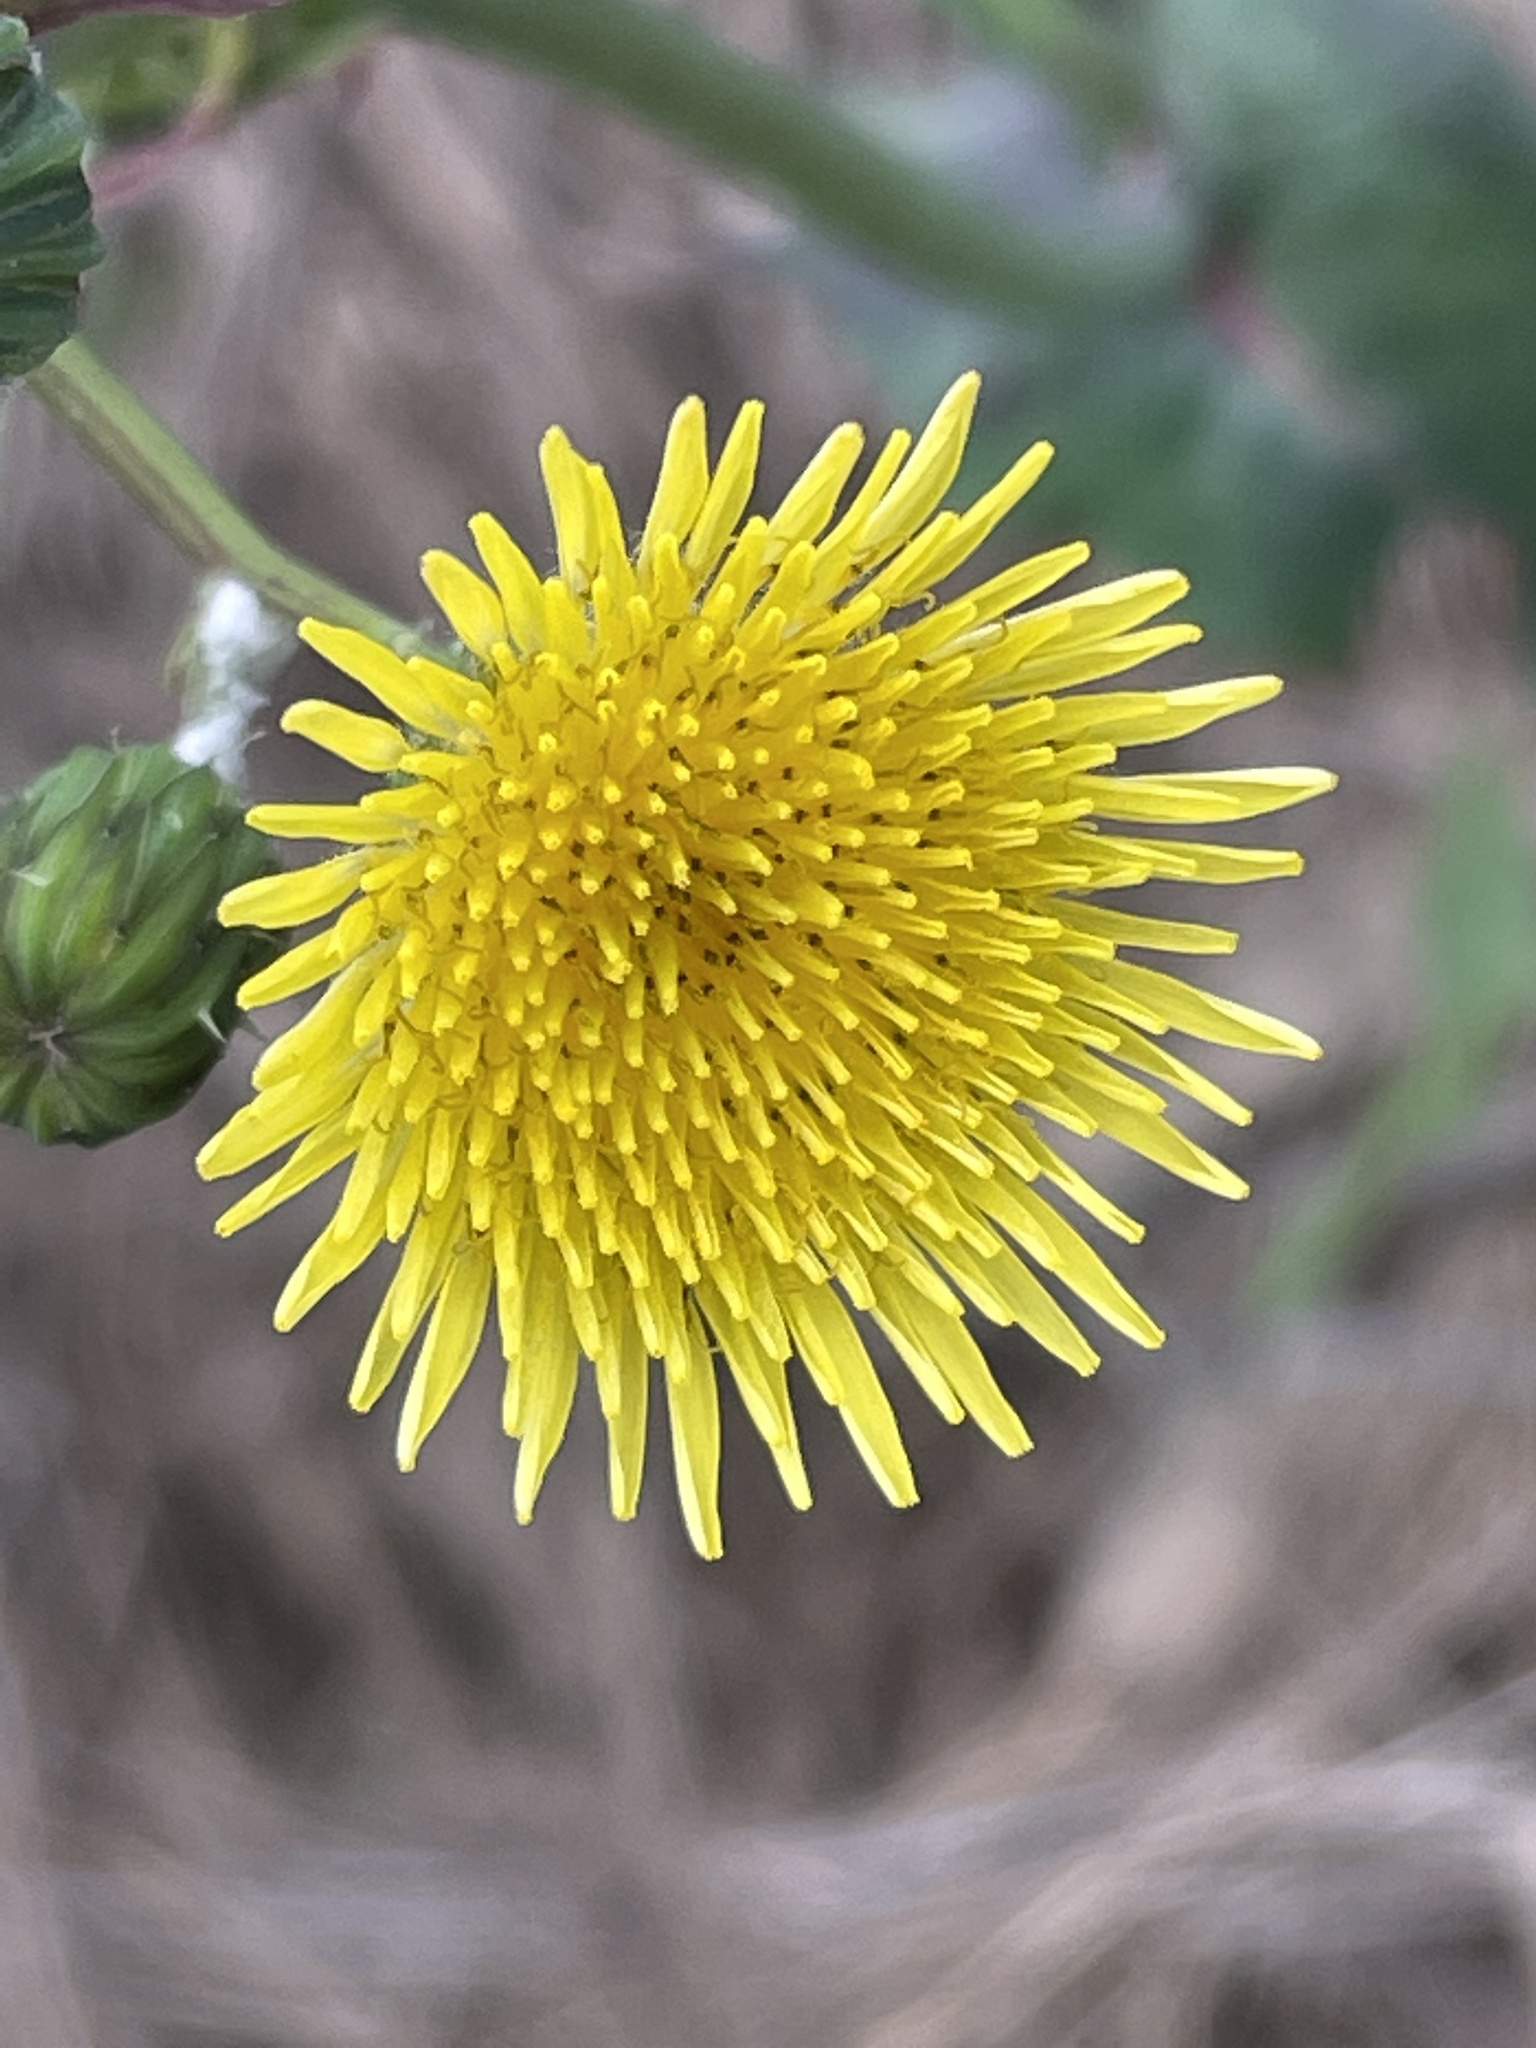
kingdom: Plantae
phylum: Tracheophyta
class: Magnoliopsida
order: Asterales
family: Asteraceae
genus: Sonchus
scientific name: Sonchus oleraceus
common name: Common sowthistle
